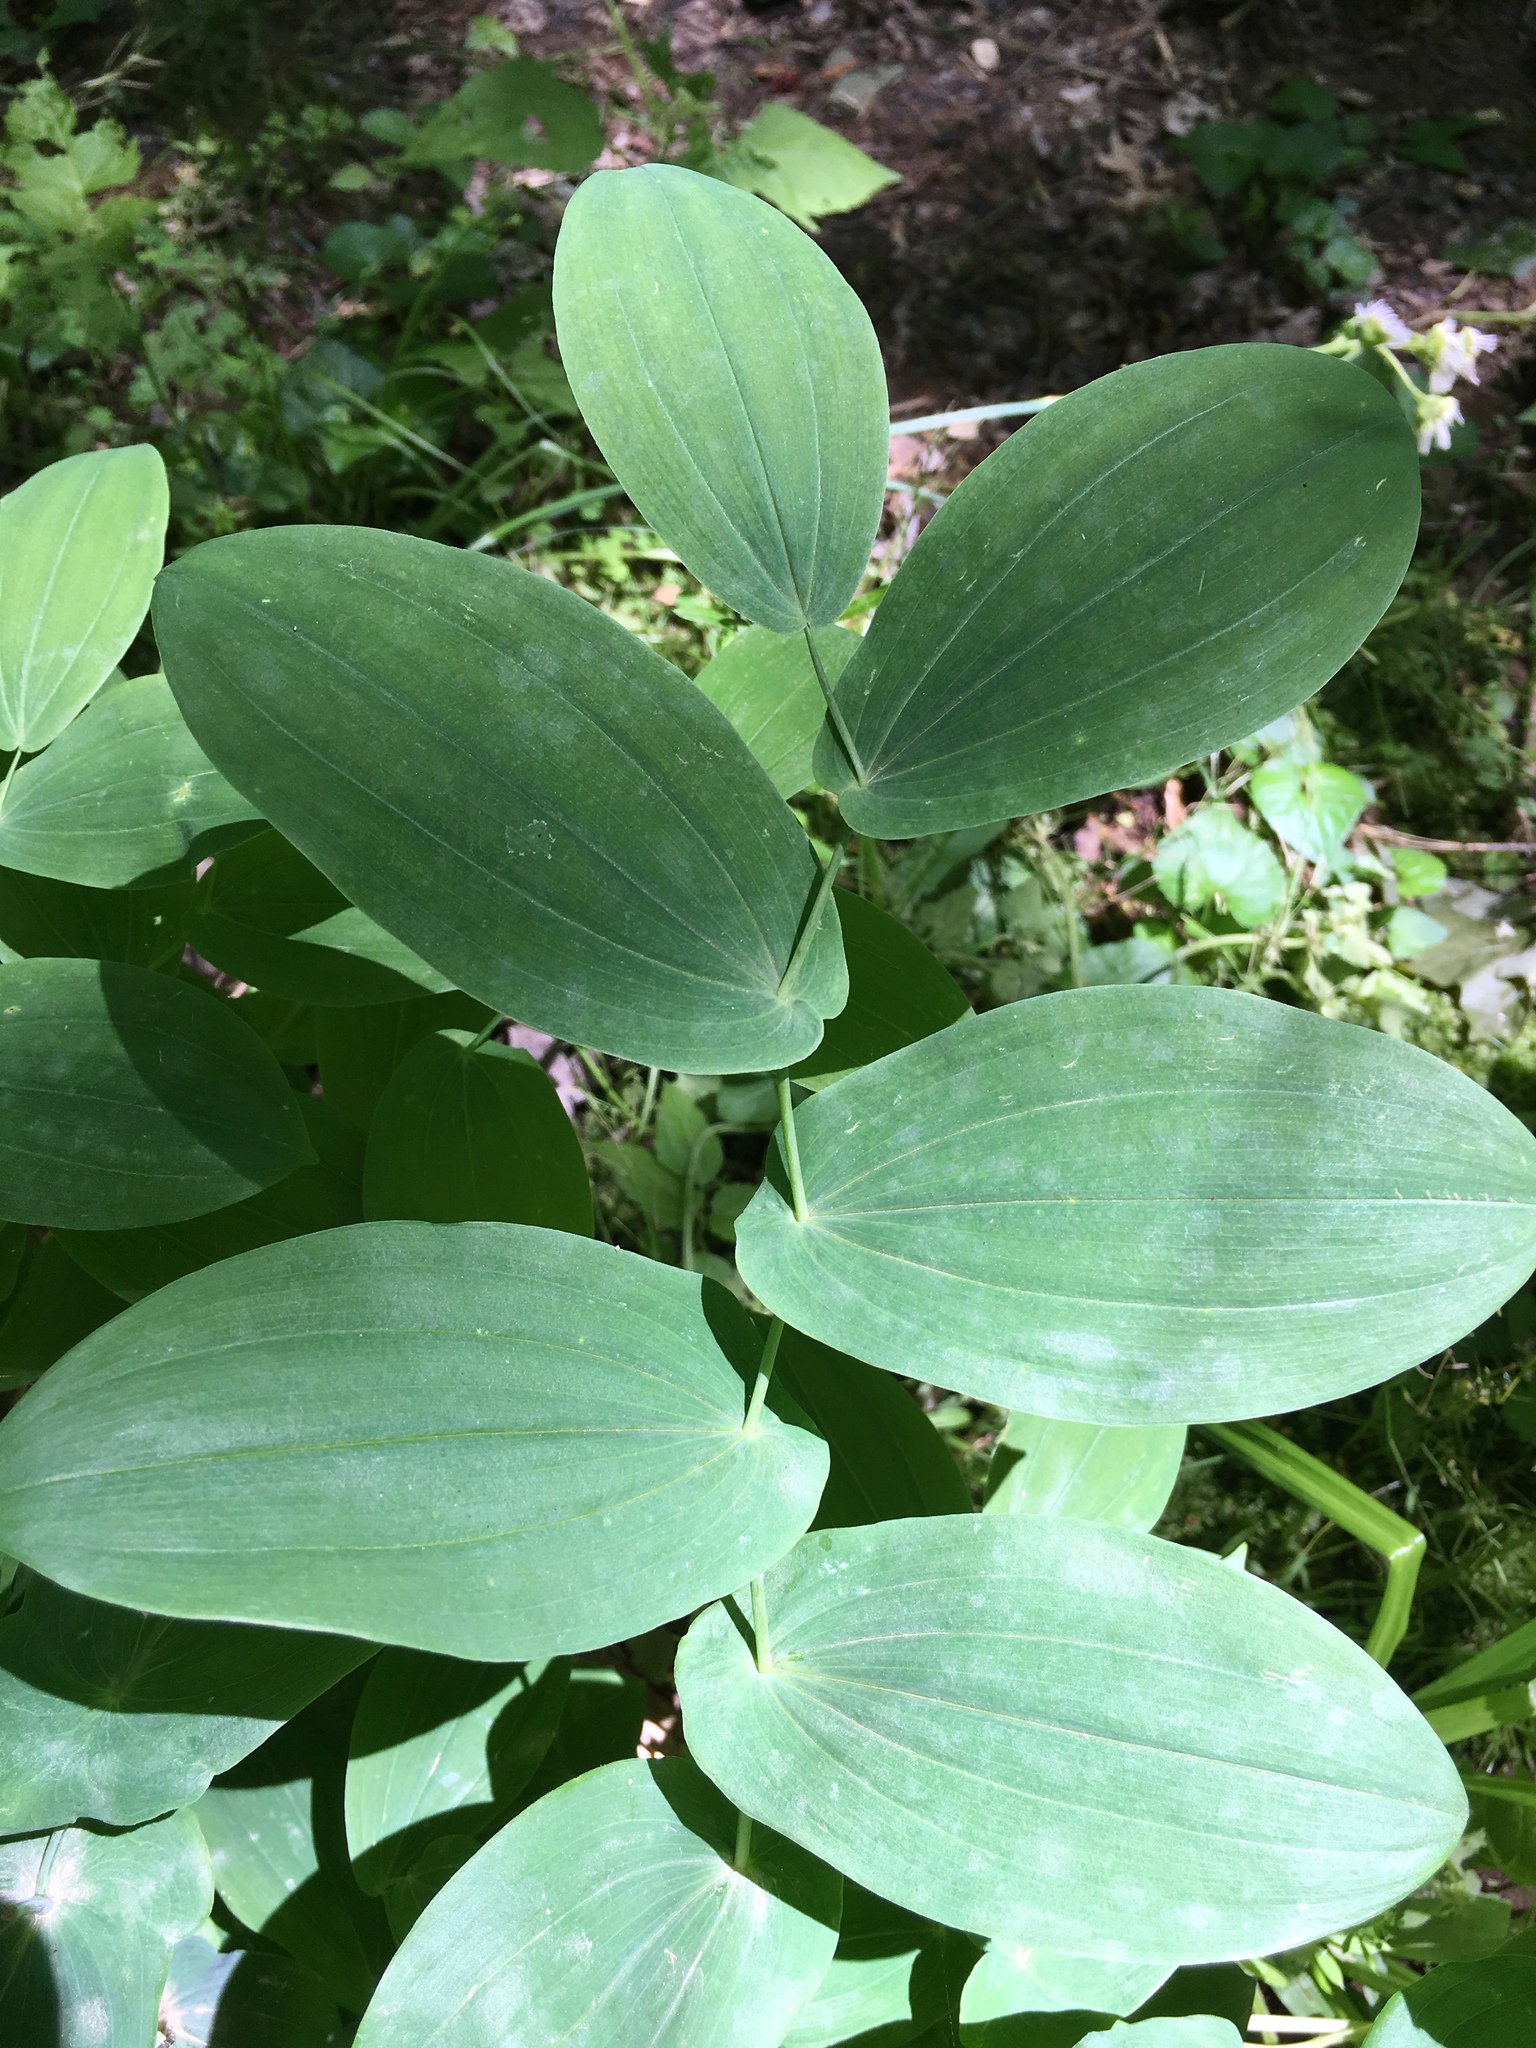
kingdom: Plantae
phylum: Tracheophyta
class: Liliopsida
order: Liliales
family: Colchicaceae
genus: Uvularia
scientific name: Uvularia grandiflora
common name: Bellwort
